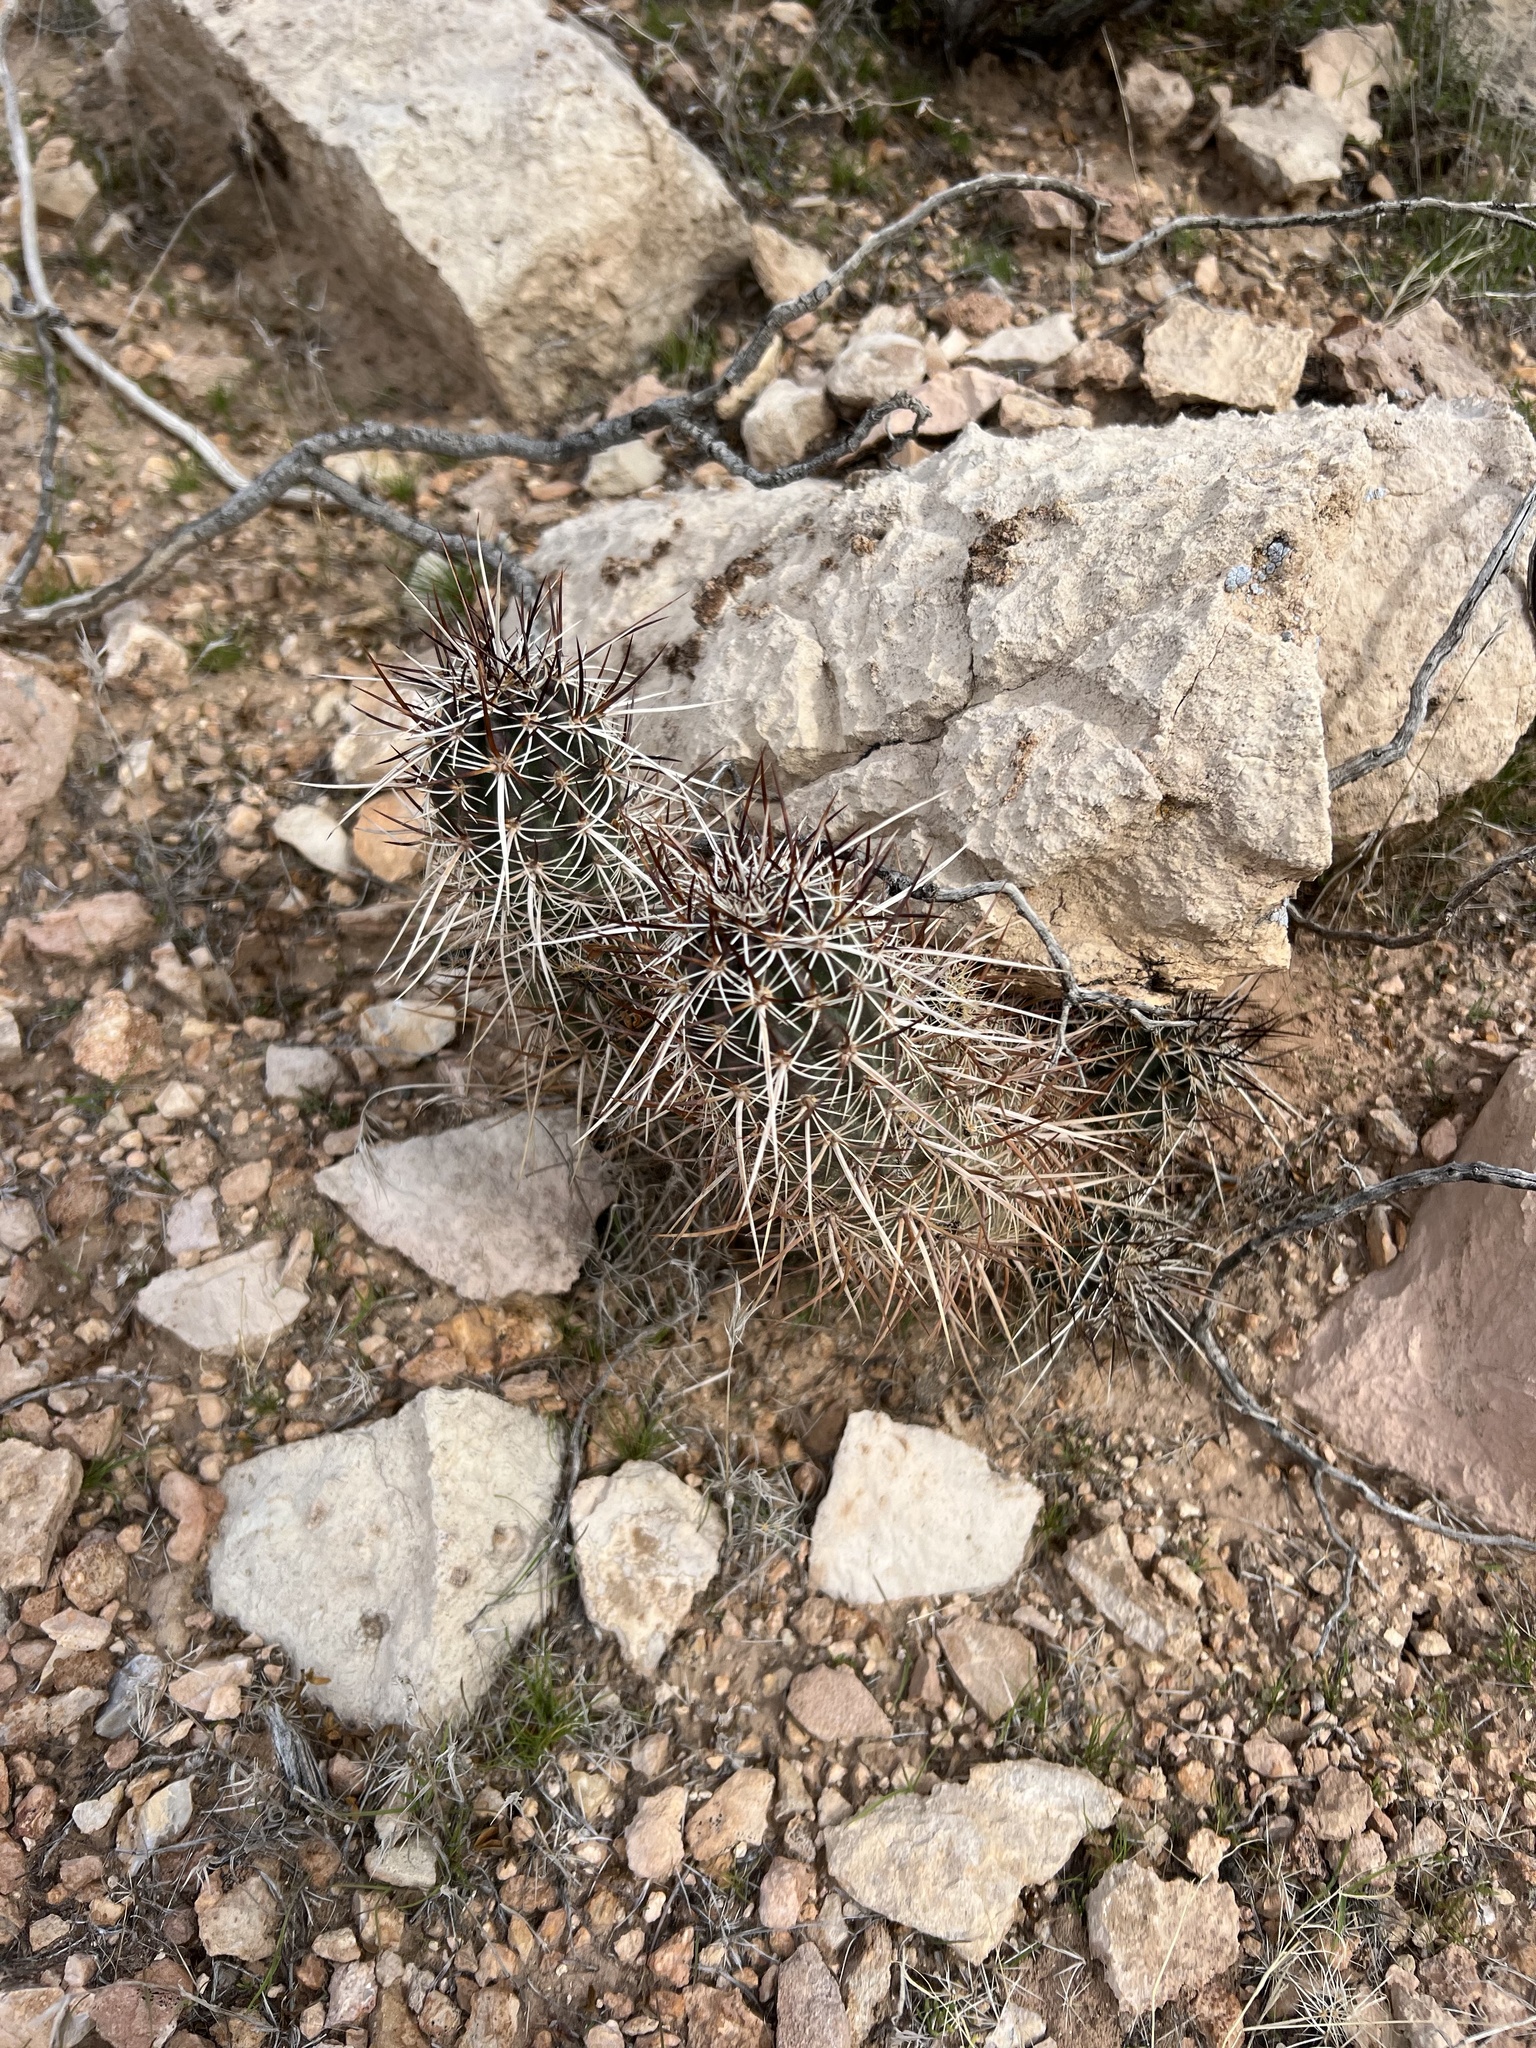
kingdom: Plantae
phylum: Tracheophyta
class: Magnoliopsida
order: Caryophyllales
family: Cactaceae
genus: Echinocereus
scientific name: Echinocereus engelmannii
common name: Engelmann's hedgehog cactus
